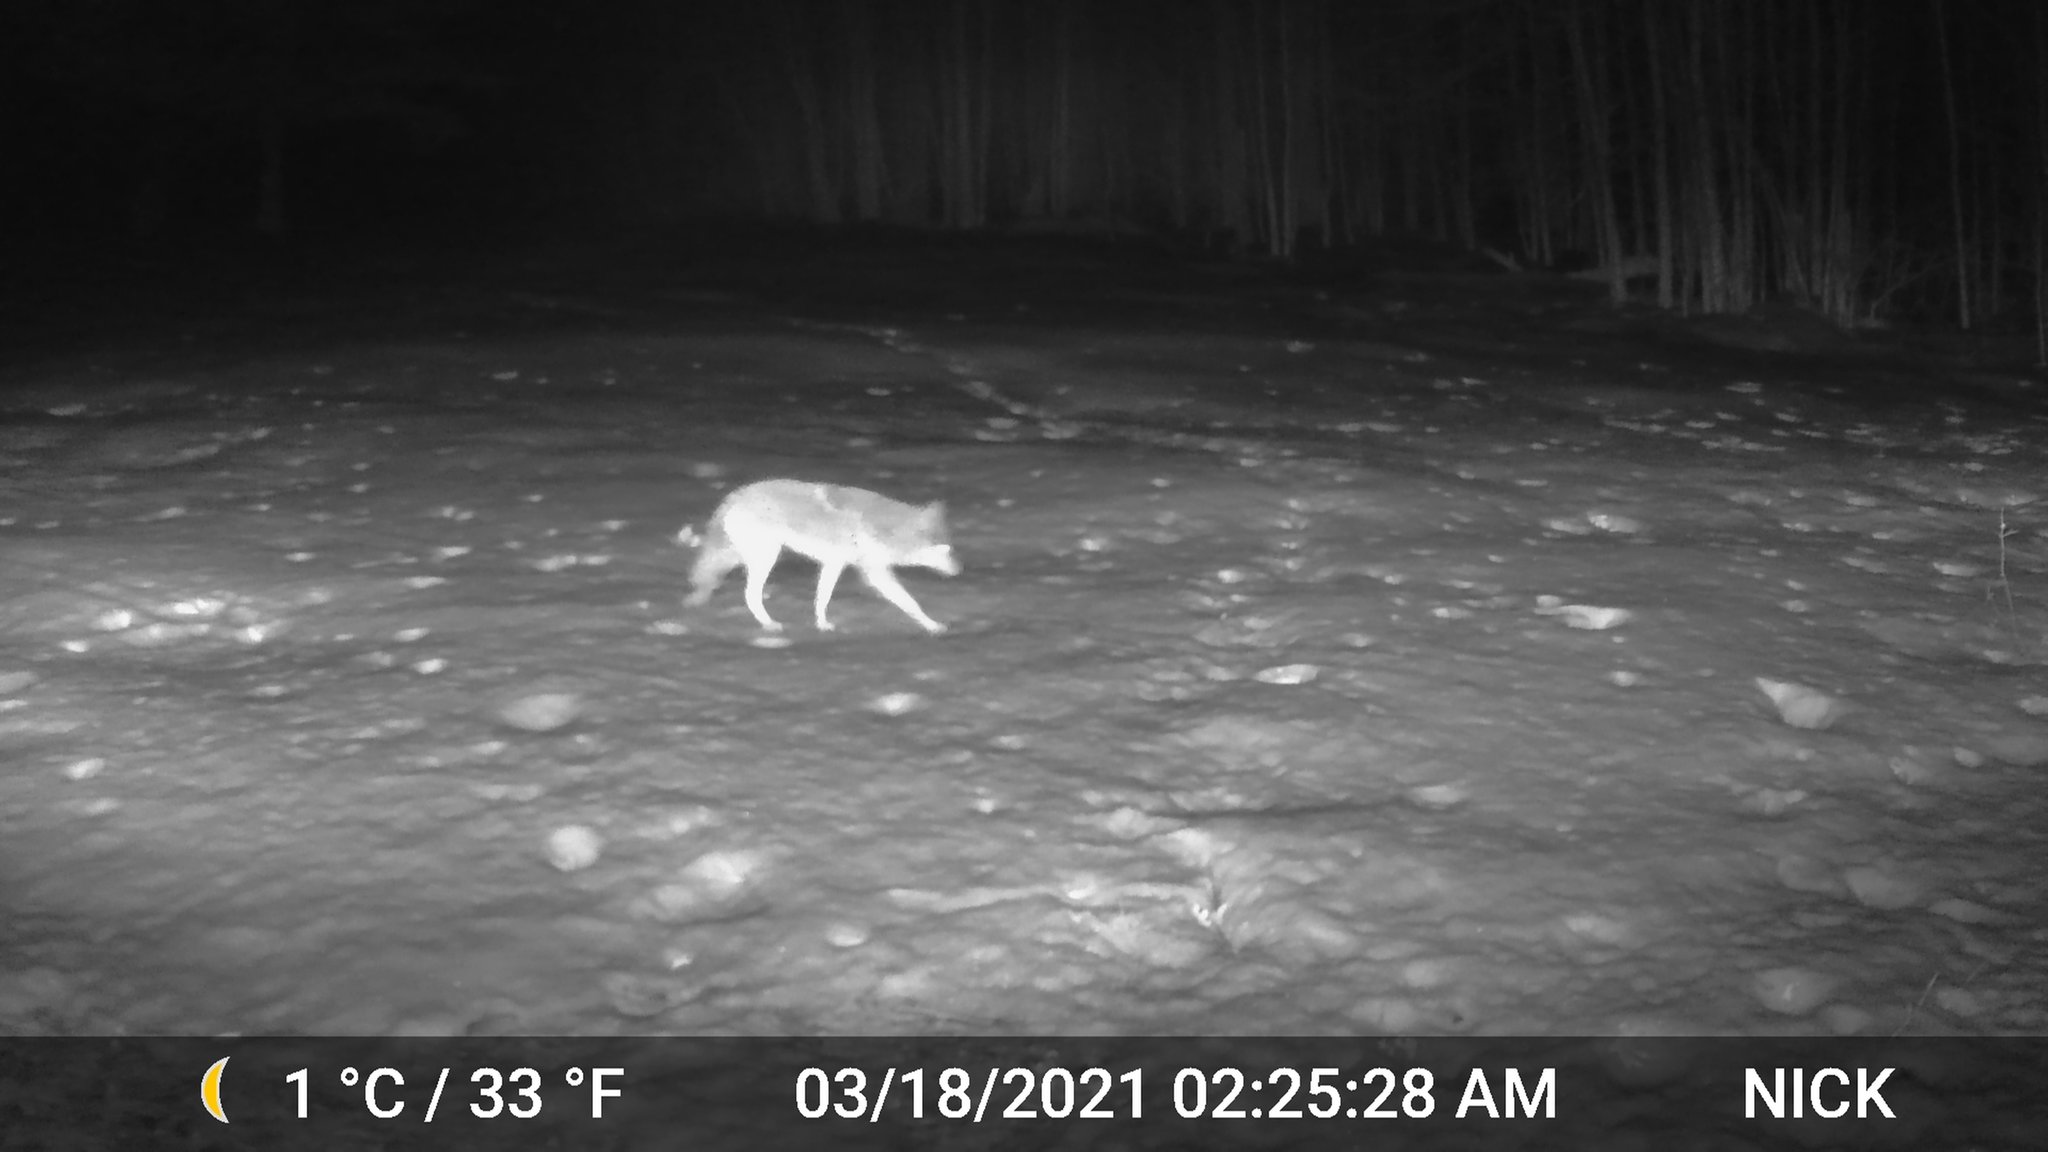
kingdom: Animalia
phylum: Chordata
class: Mammalia
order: Carnivora
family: Canidae
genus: Canis
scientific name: Canis latrans
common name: Coyote
